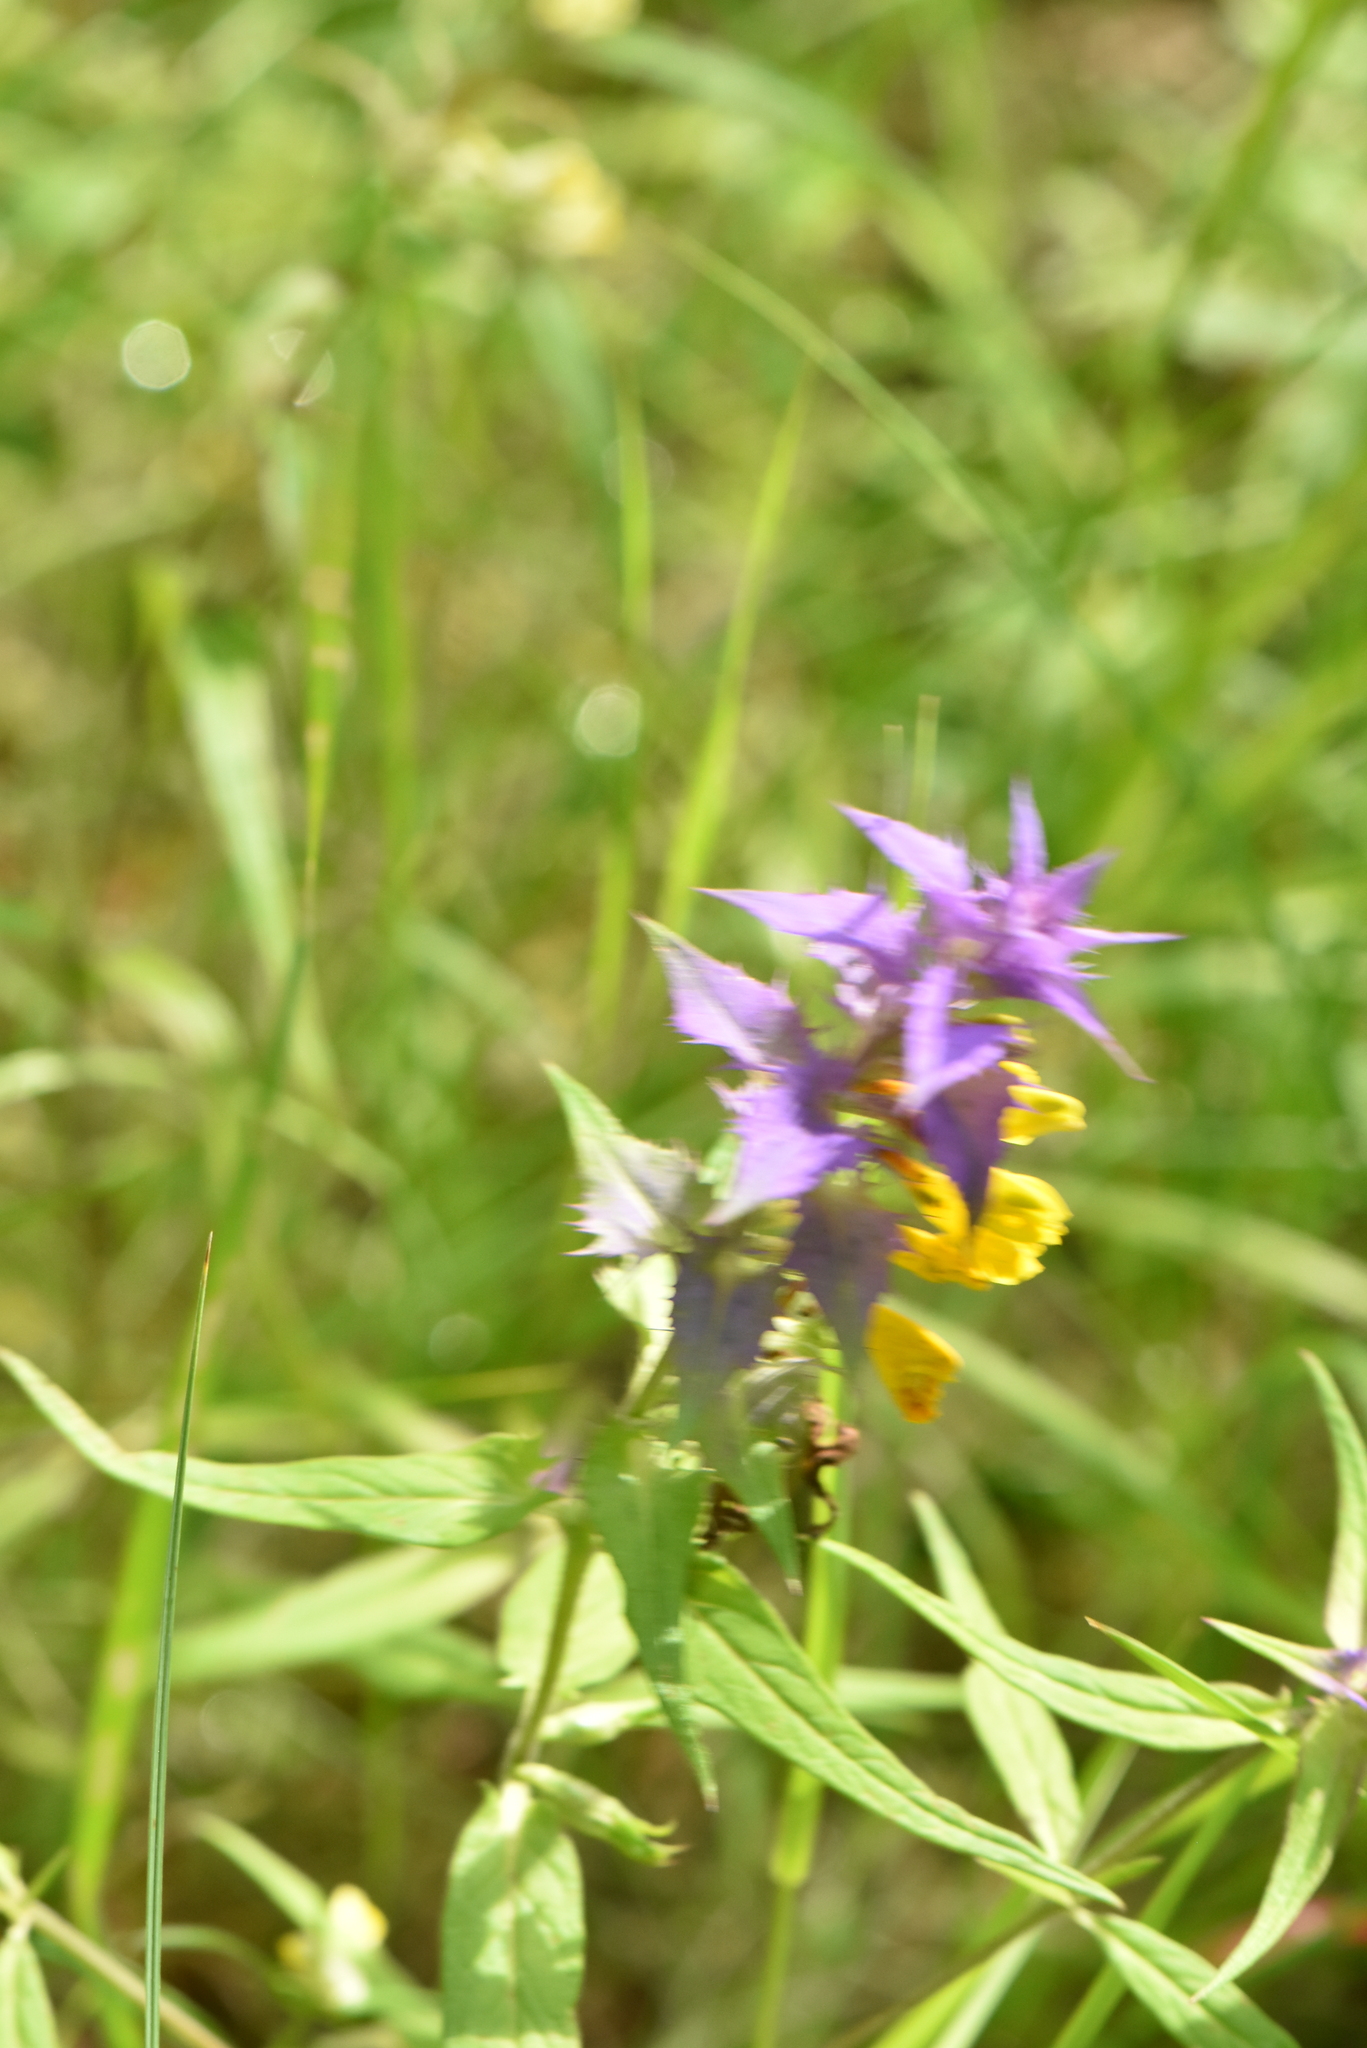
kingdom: Plantae
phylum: Tracheophyta
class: Magnoliopsida
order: Lamiales
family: Orobanchaceae
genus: Melampyrum
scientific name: Melampyrum nemorosum
